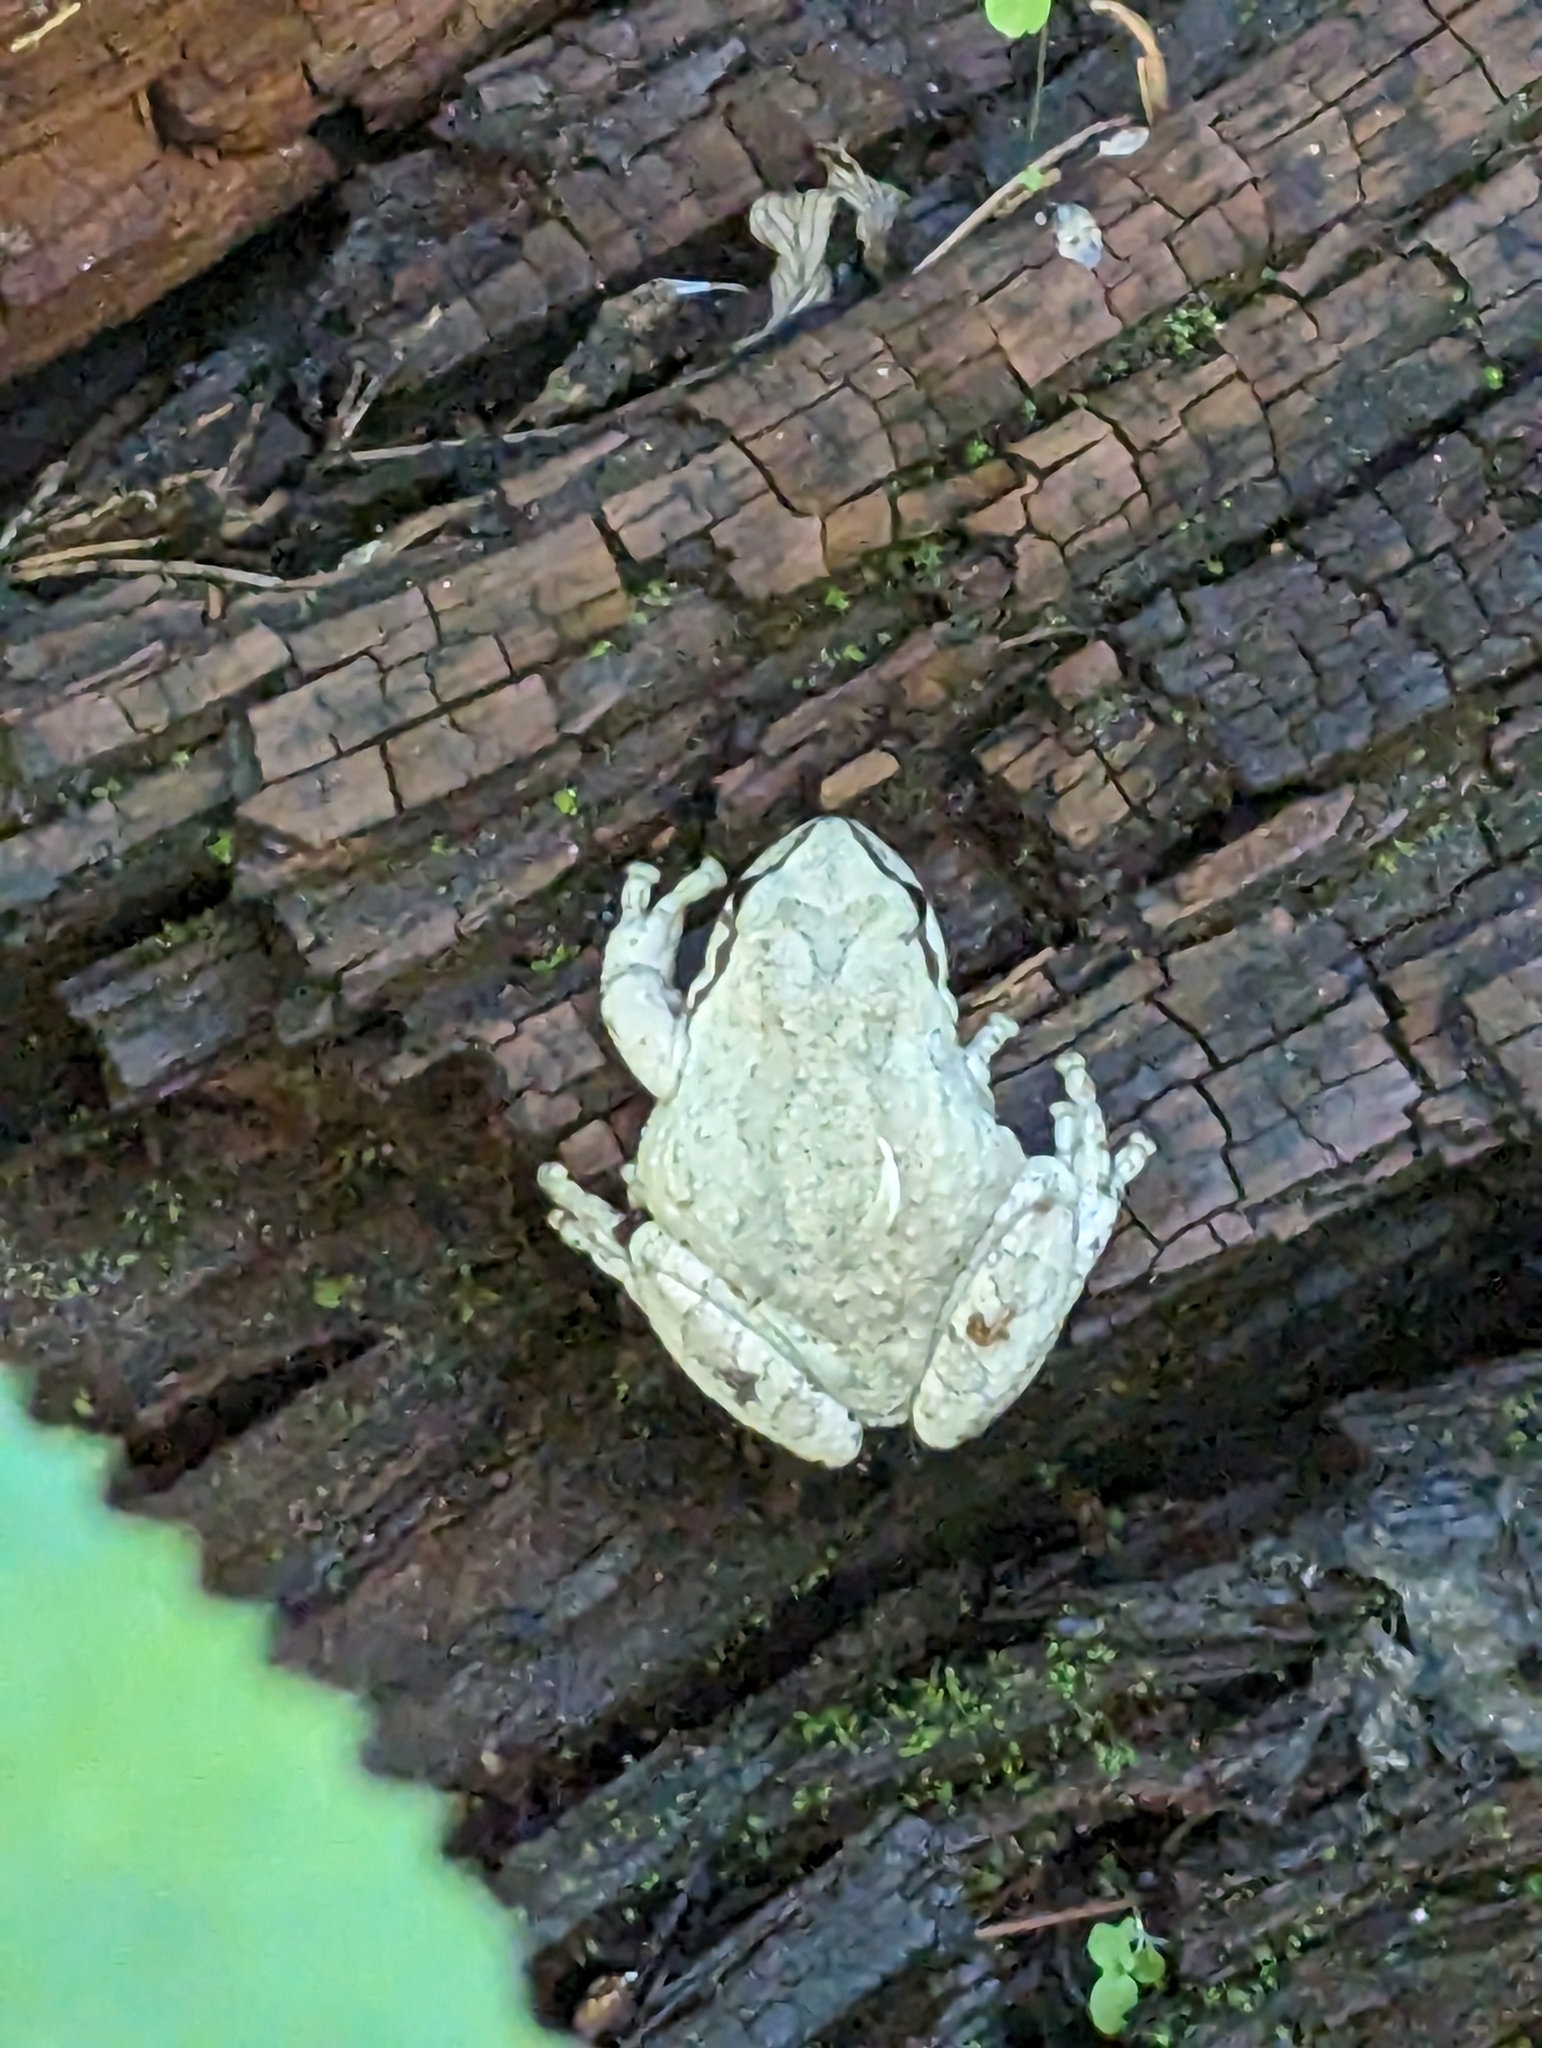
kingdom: Animalia
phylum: Chordata
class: Amphibia
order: Anura
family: Hylidae
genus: Pseudacris
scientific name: Pseudacris regilla
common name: Pacific chorus frog
